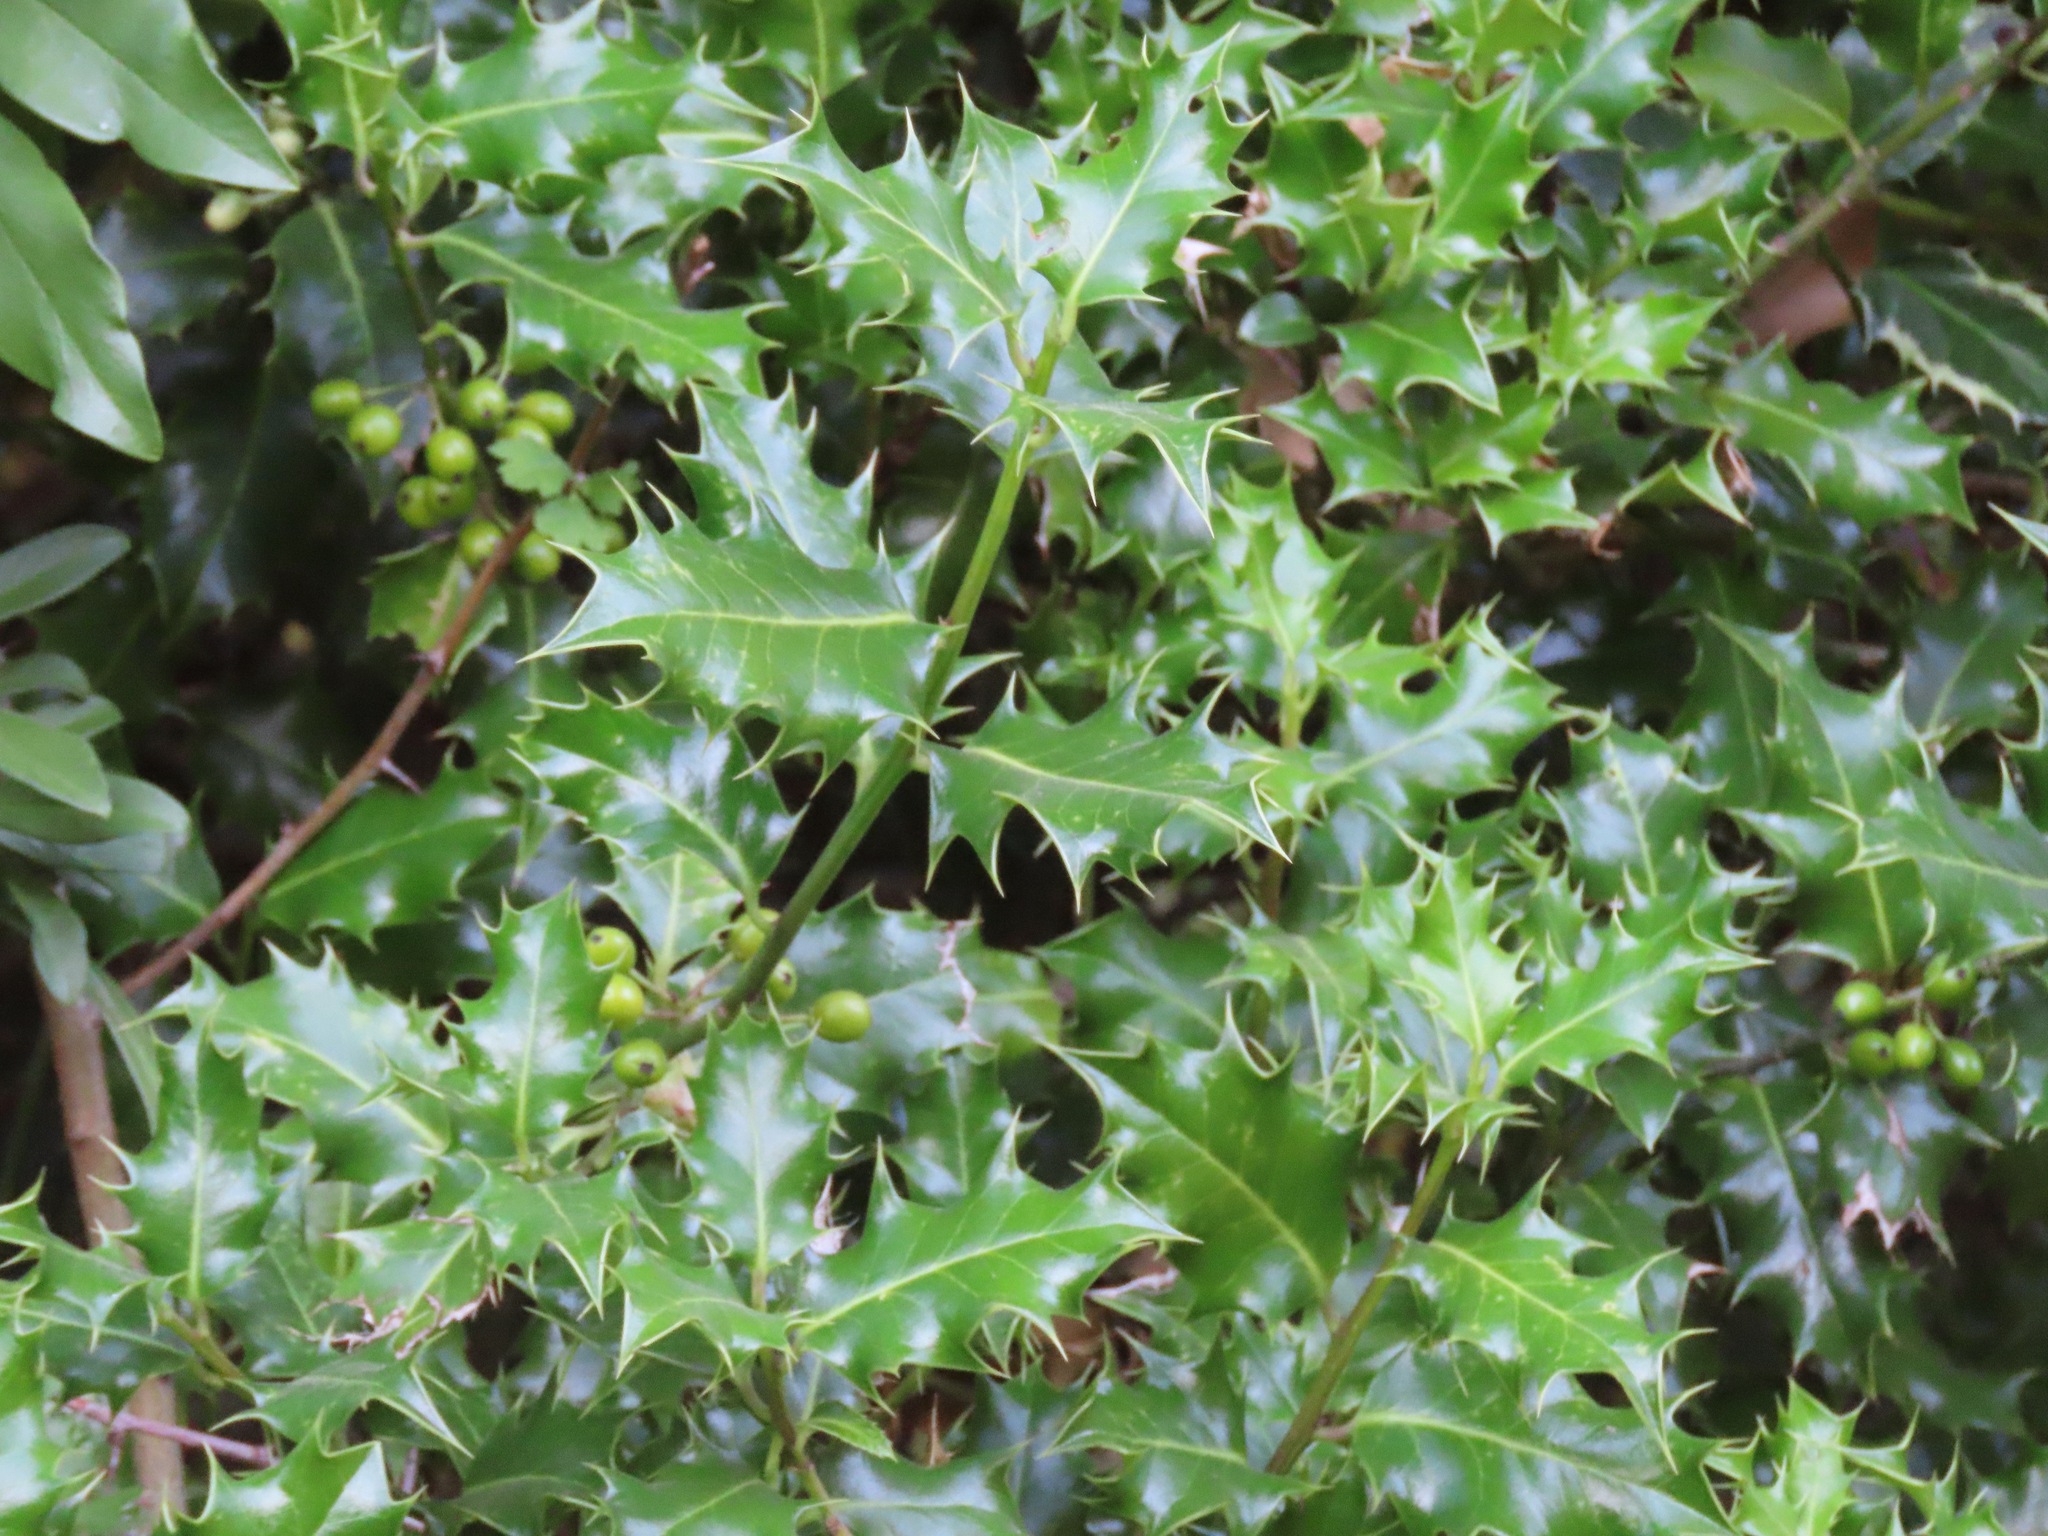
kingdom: Plantae
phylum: Tracheophyta
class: Magnoliopsida
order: Aquifoliales
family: Aquifoliaceae
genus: Ilex
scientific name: Ilex aquifolium
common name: English holly
